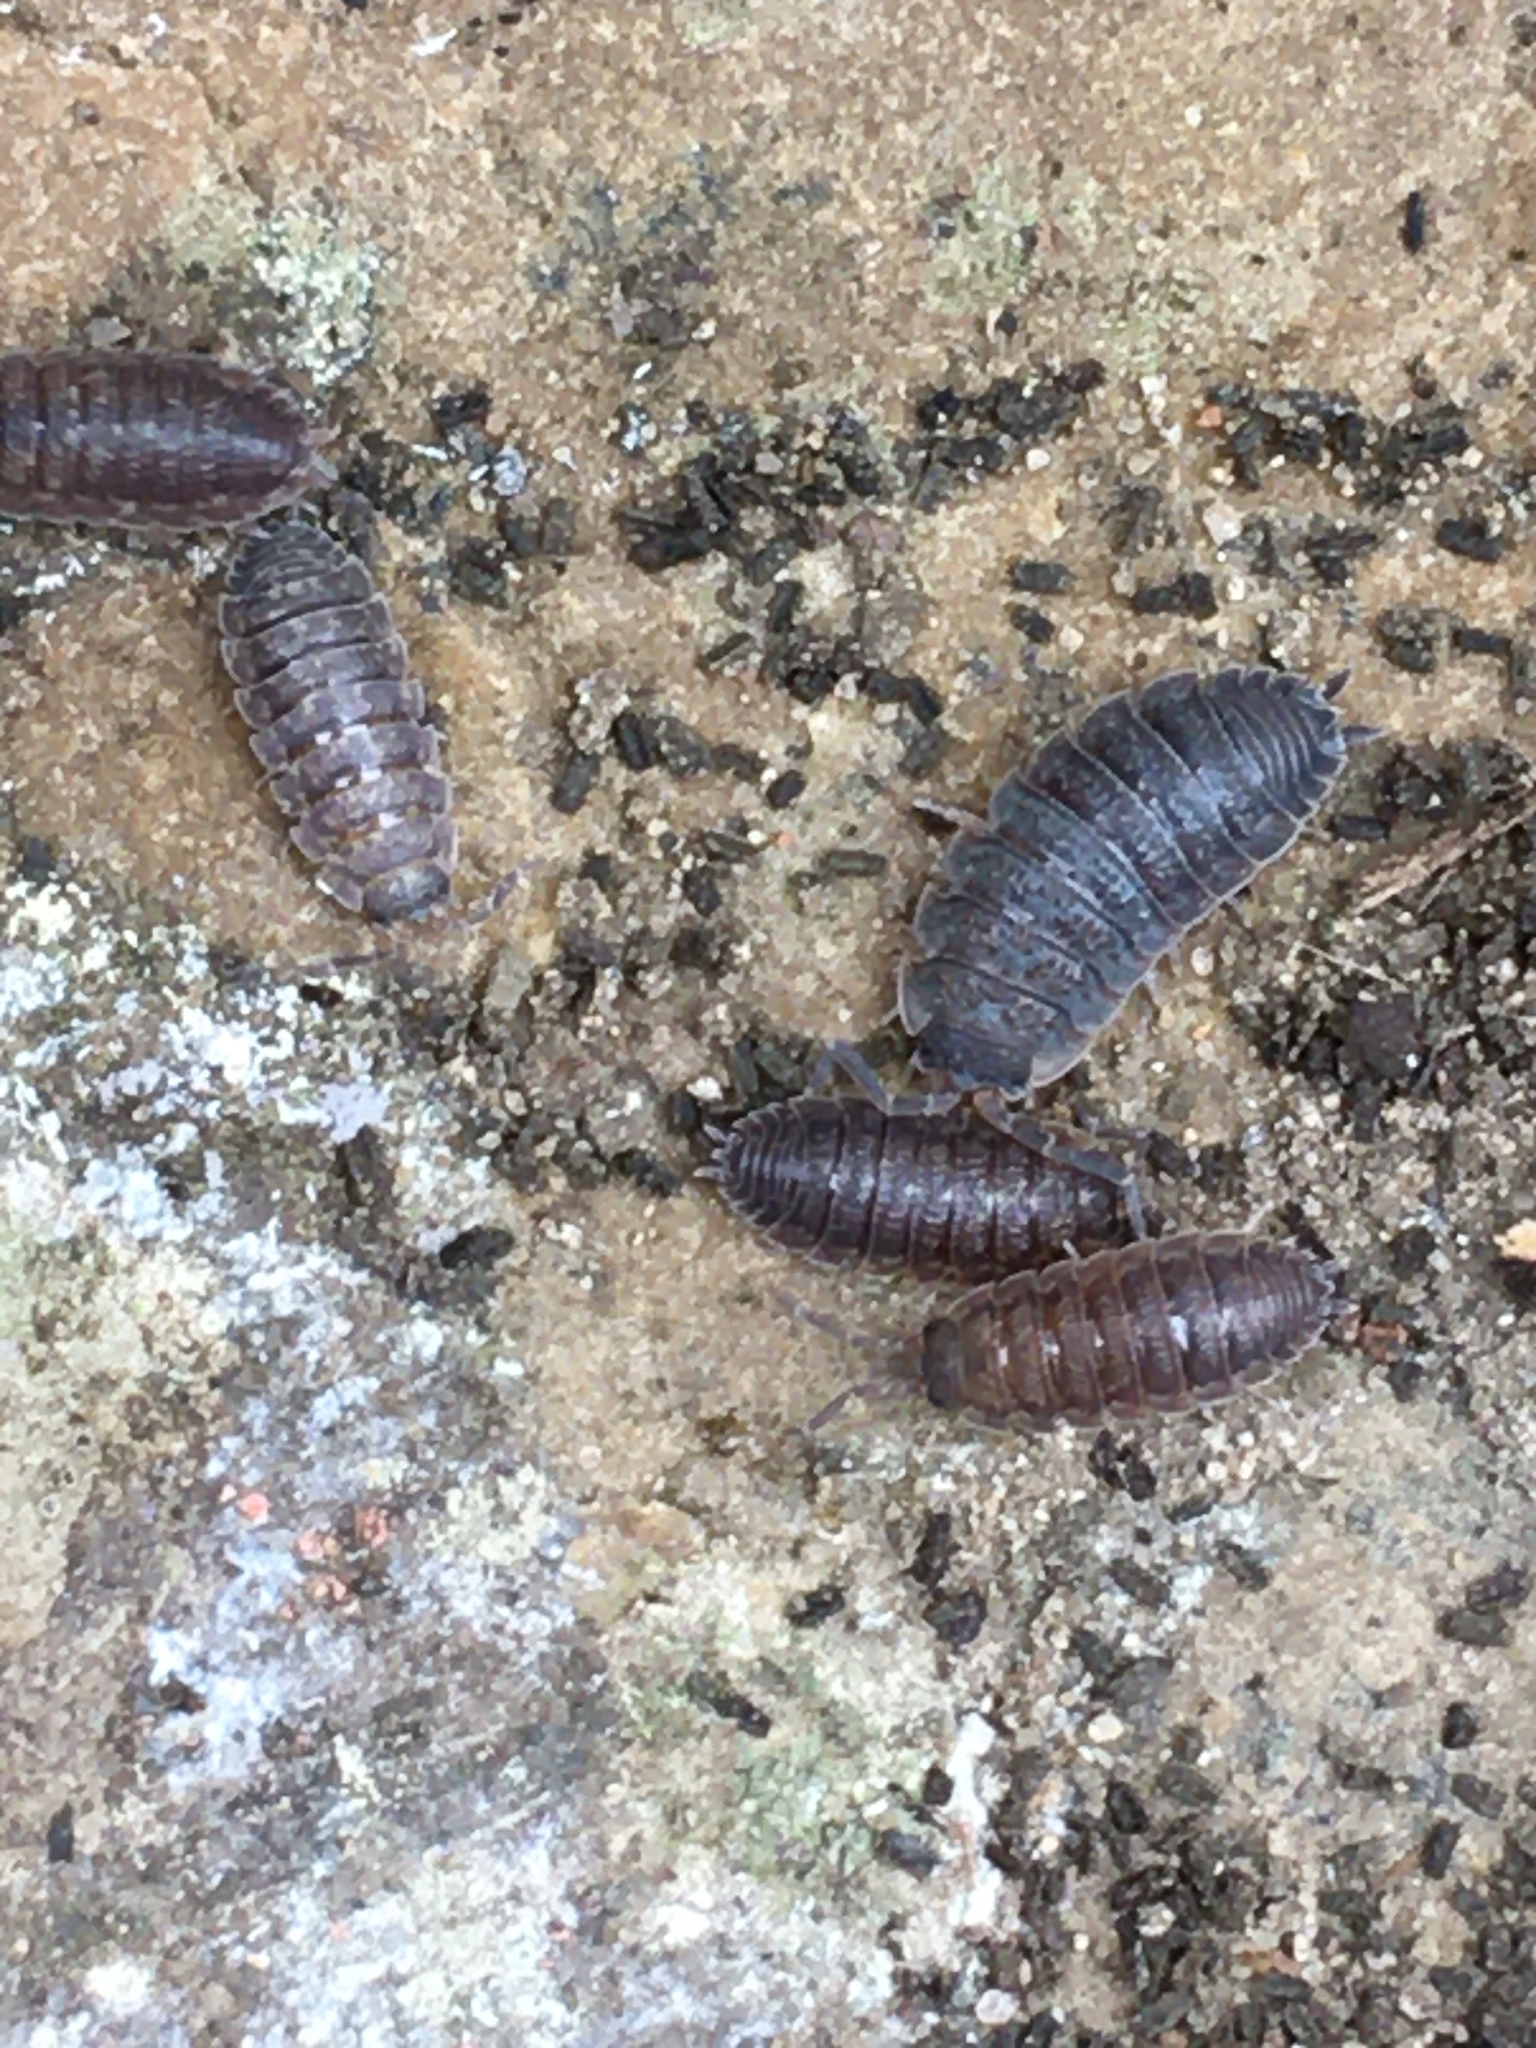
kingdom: Animalia
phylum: Arthropoda
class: Malacostraca
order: Isopoda
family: Porcellionidae
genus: Porcellio
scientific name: Porcellio scaber
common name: Common rough woodlouse
